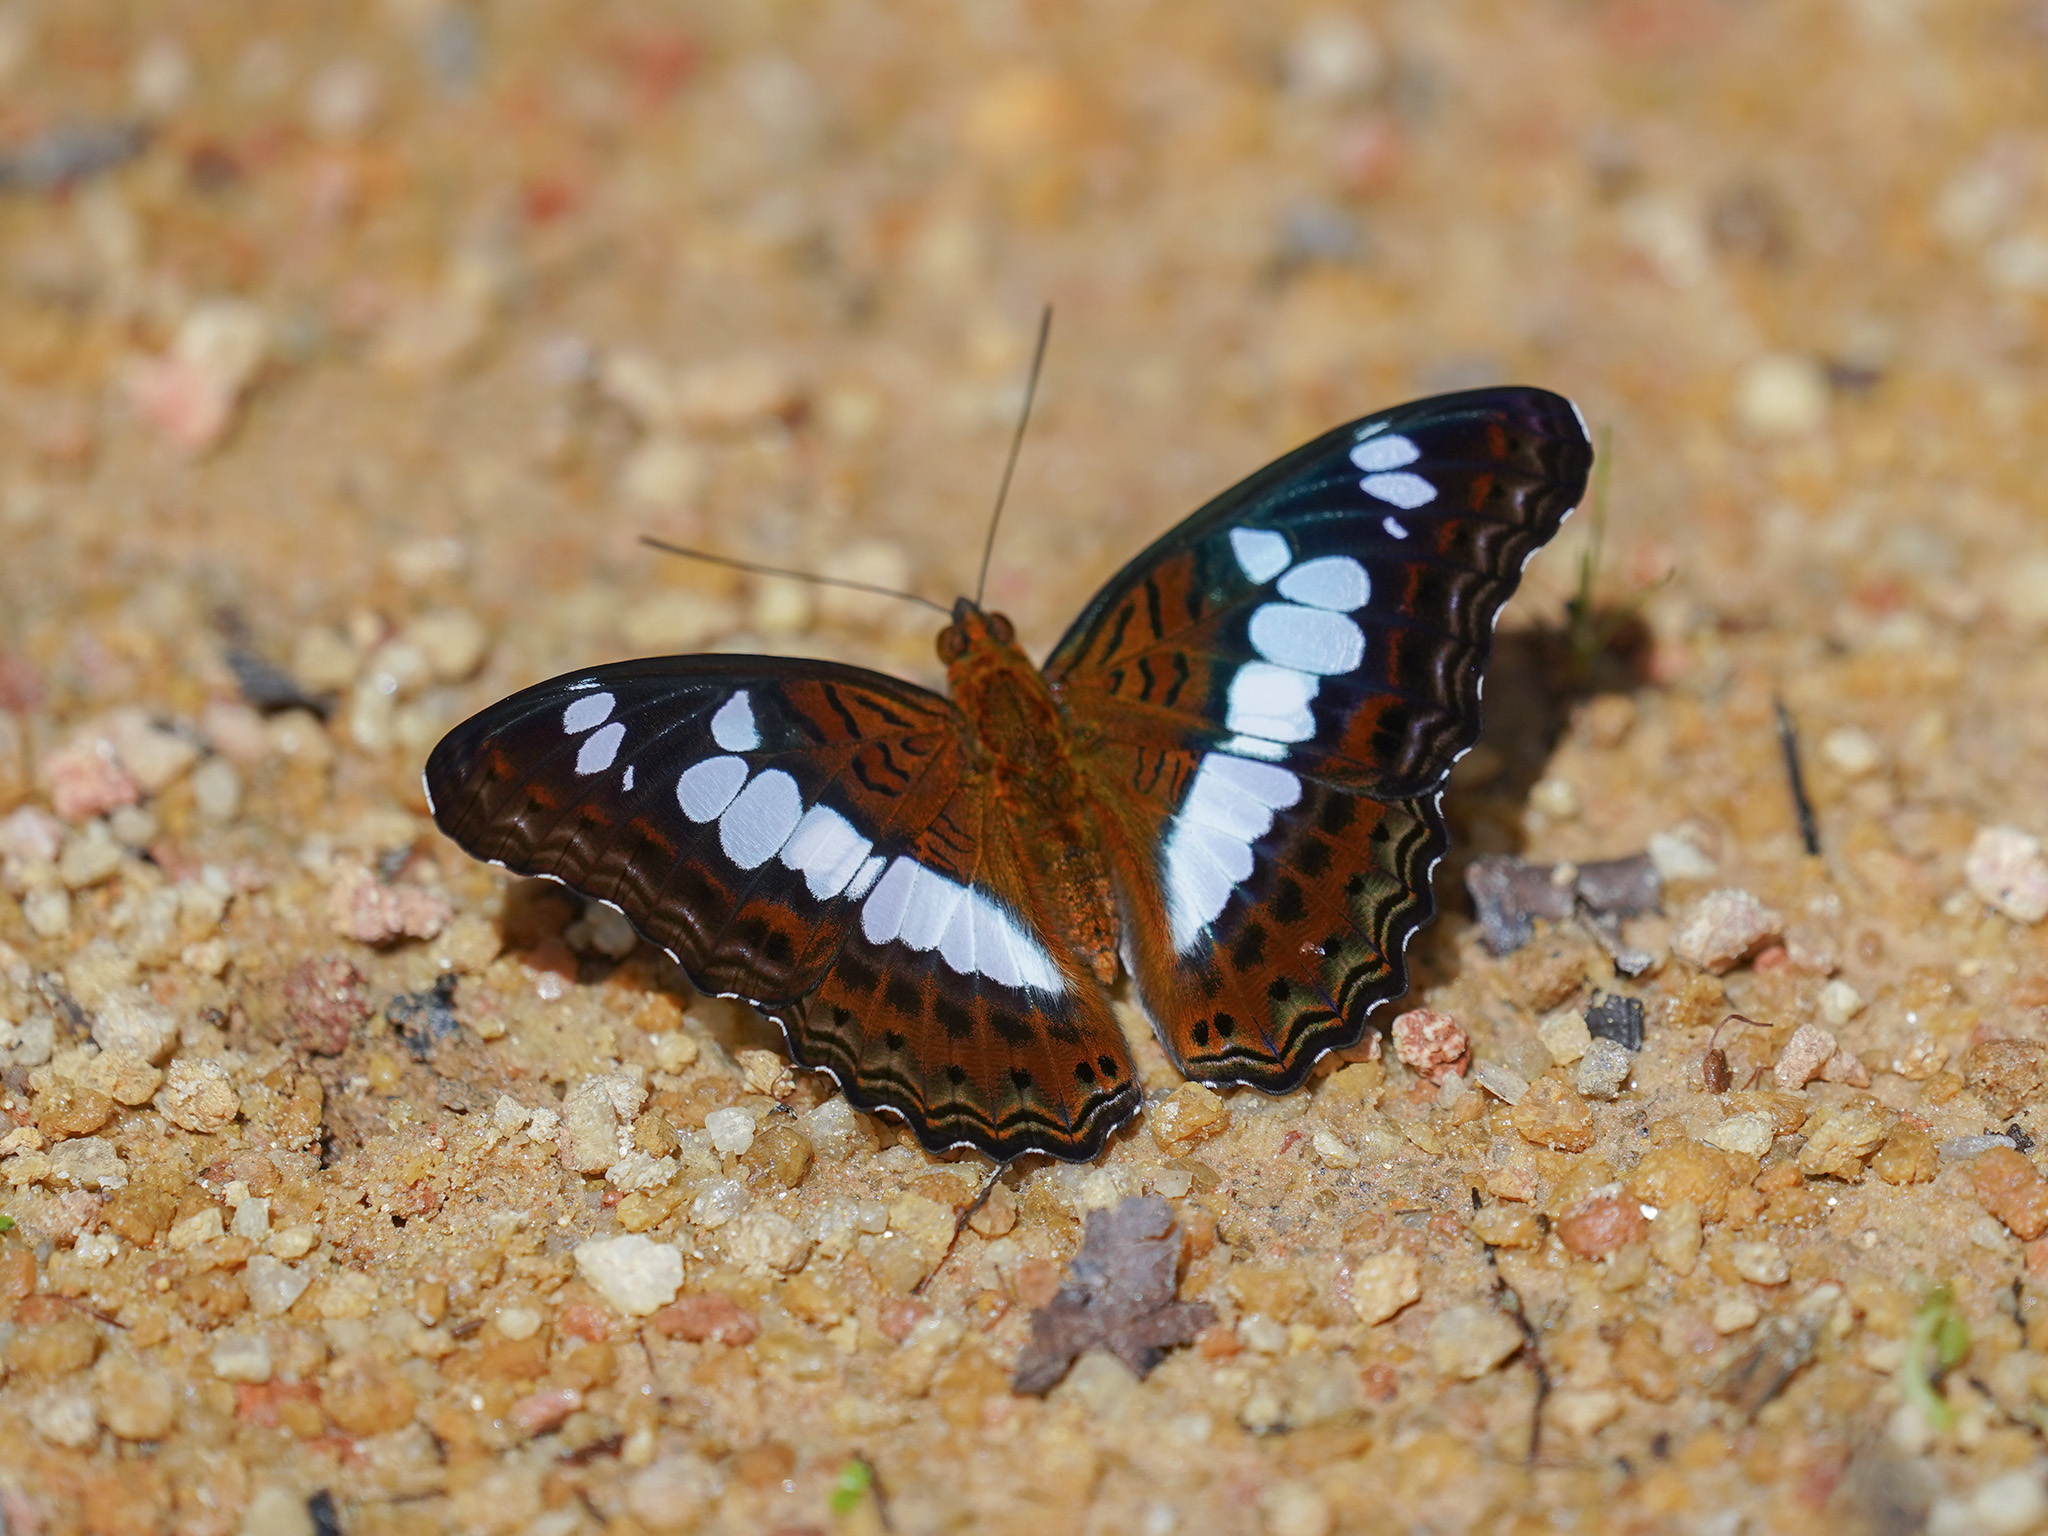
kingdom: Animalia
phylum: Arthropoda
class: Insecta
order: Lepidoptera
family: Nymphalidae
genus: Limenitis
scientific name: Limenitis Moduza procris
